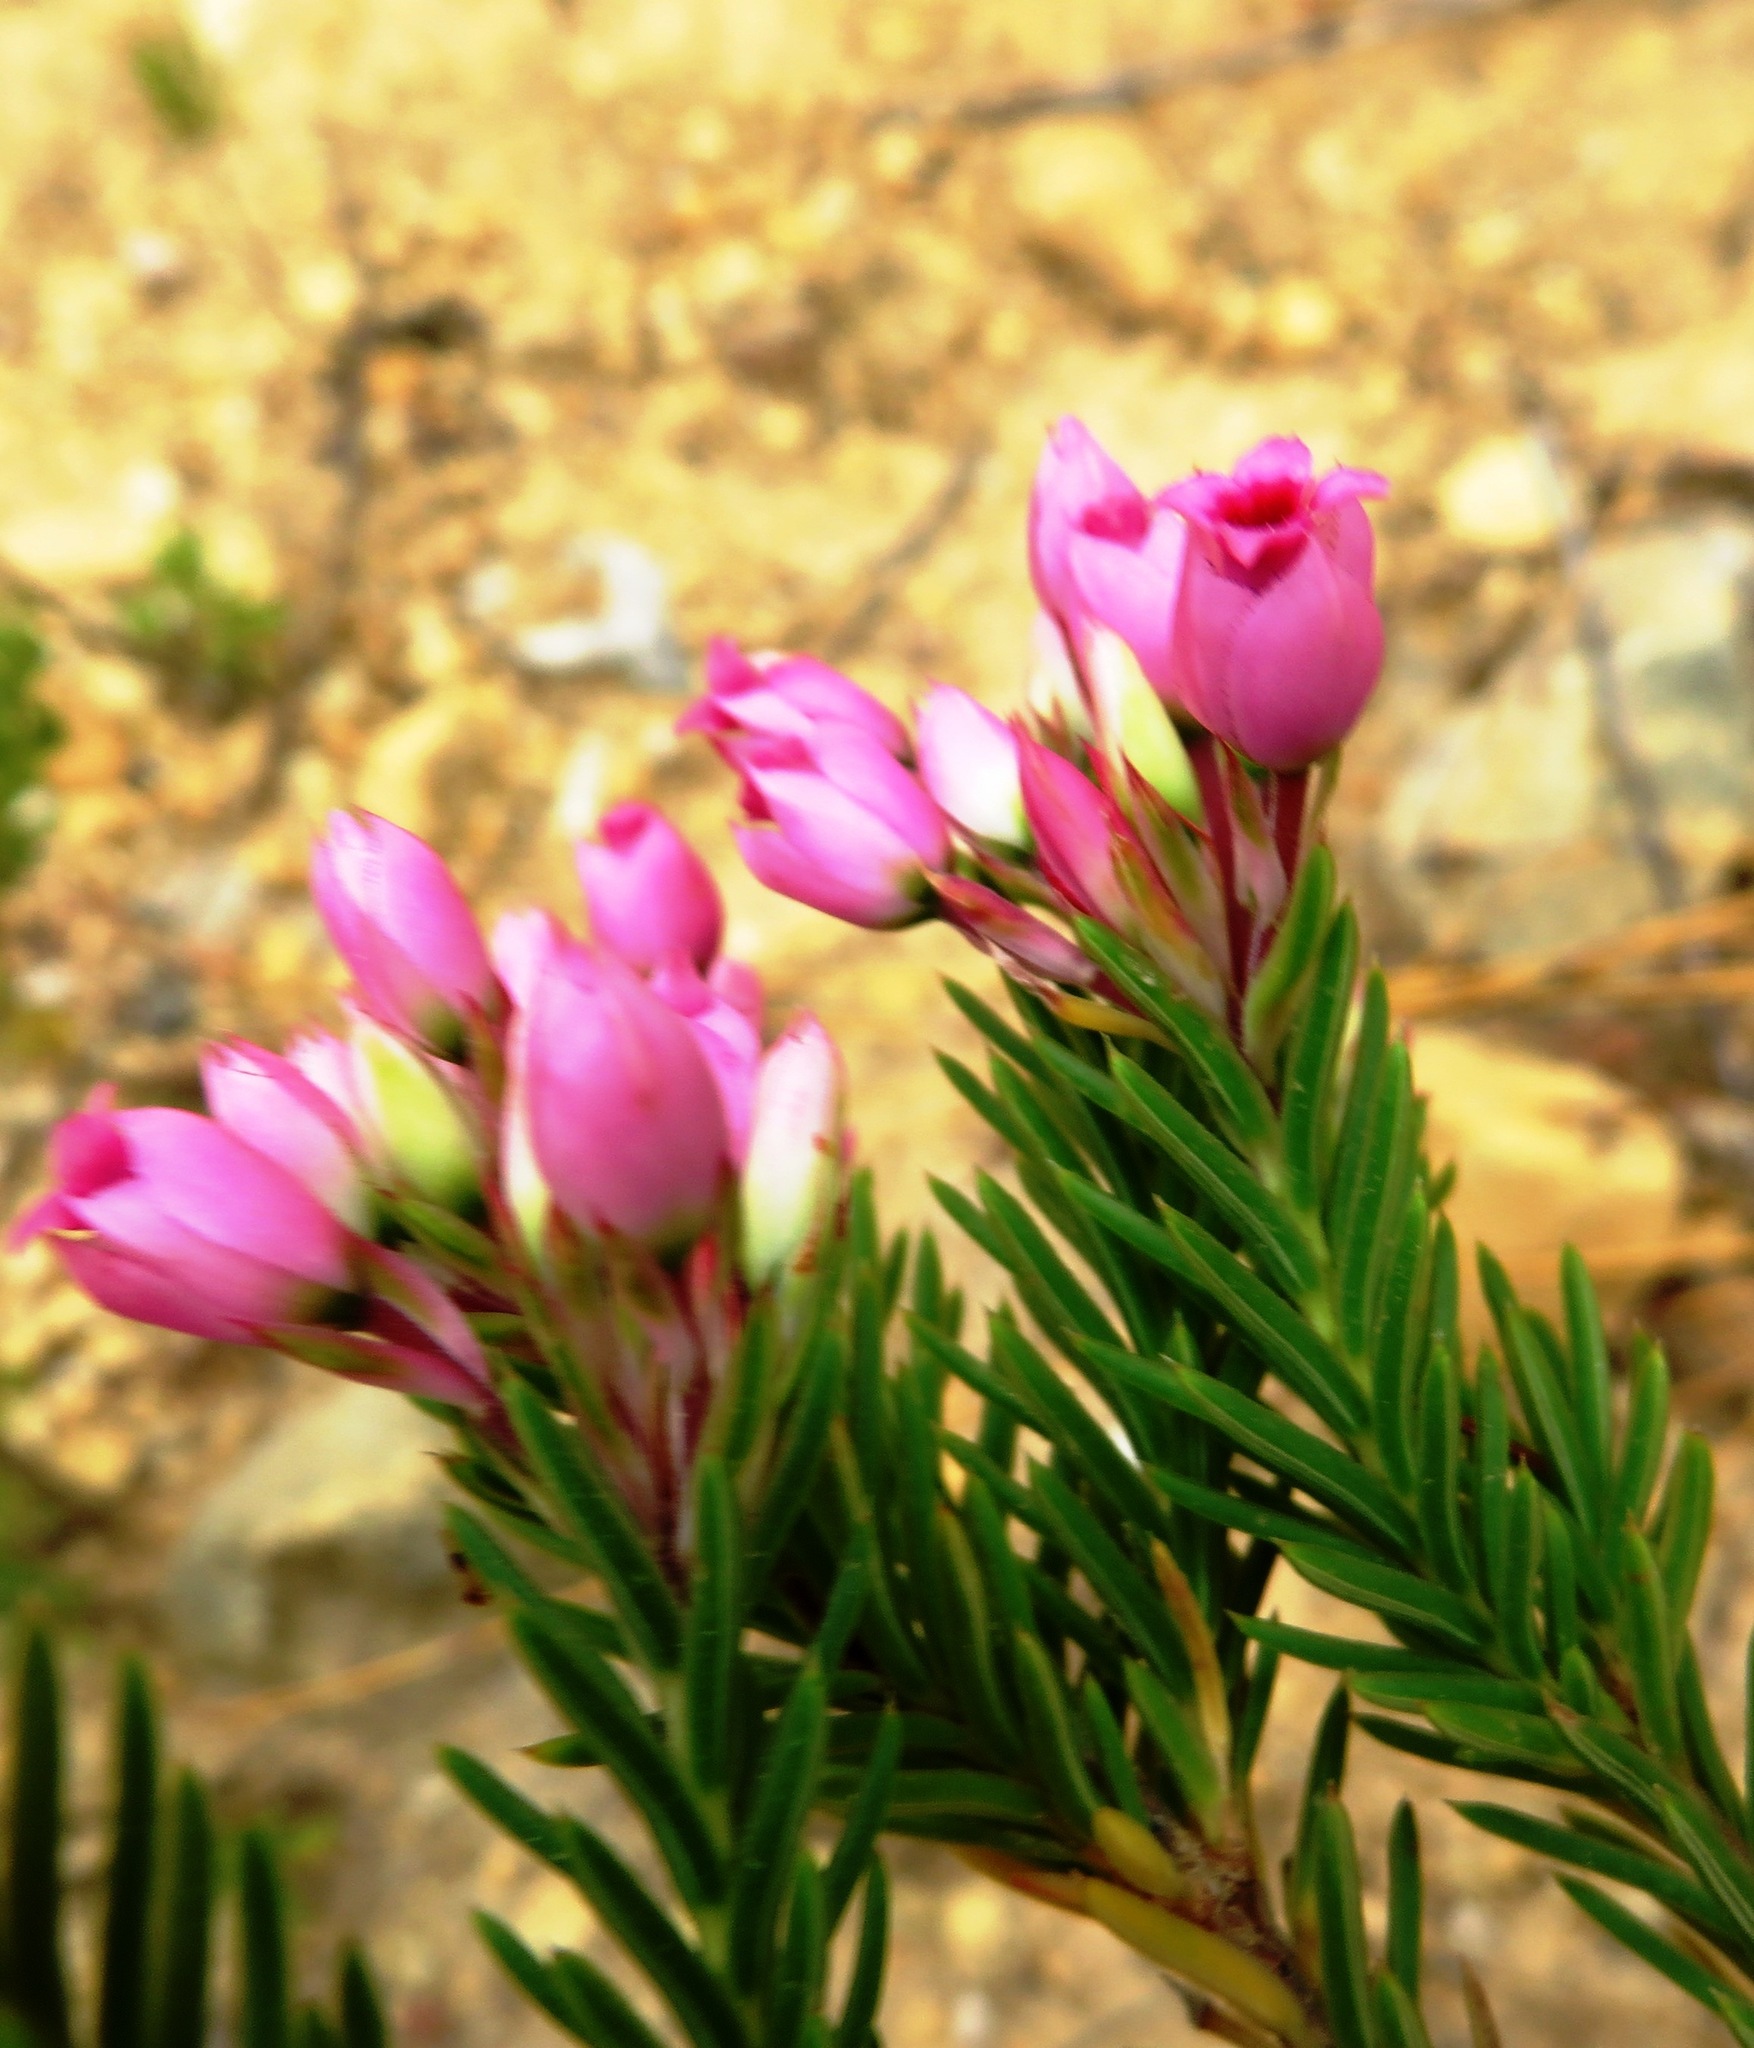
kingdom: Plantae
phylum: Tracheophyta
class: Magnoliopsida
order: Ericales
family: Ericaceae
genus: Erica
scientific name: Erica taxifolia
